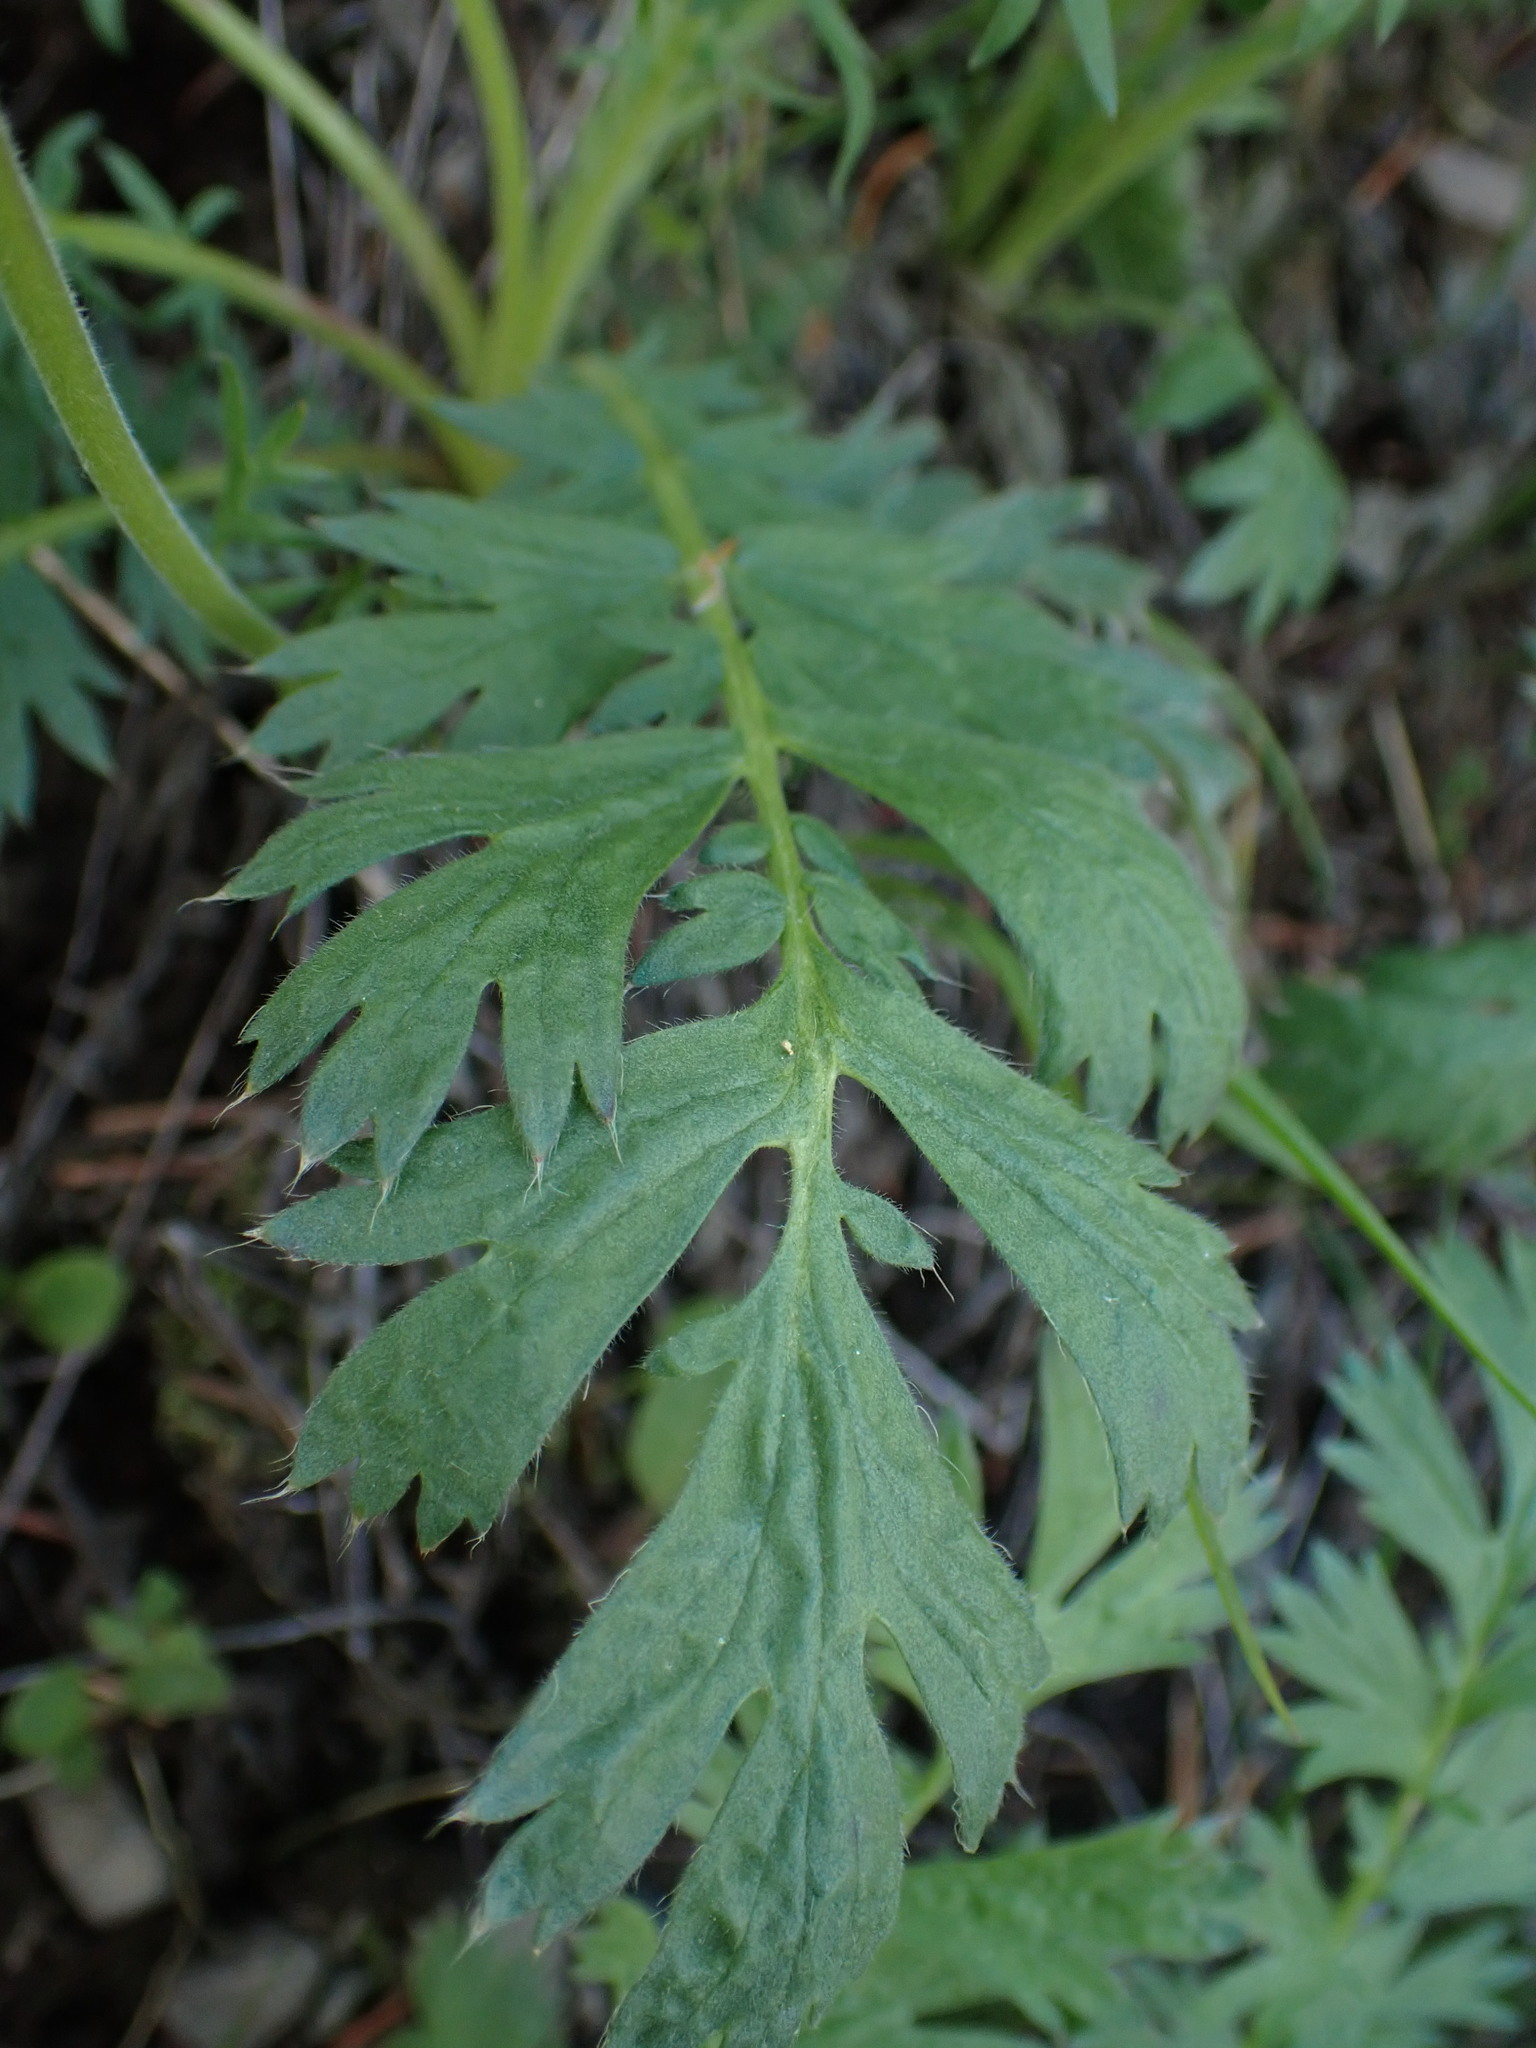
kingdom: Plantae
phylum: Tracheophyta
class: Magnoliopsida
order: Rosales
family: Rosaceae
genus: Geum
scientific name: Geum triflorum
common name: Old man's whiskers
